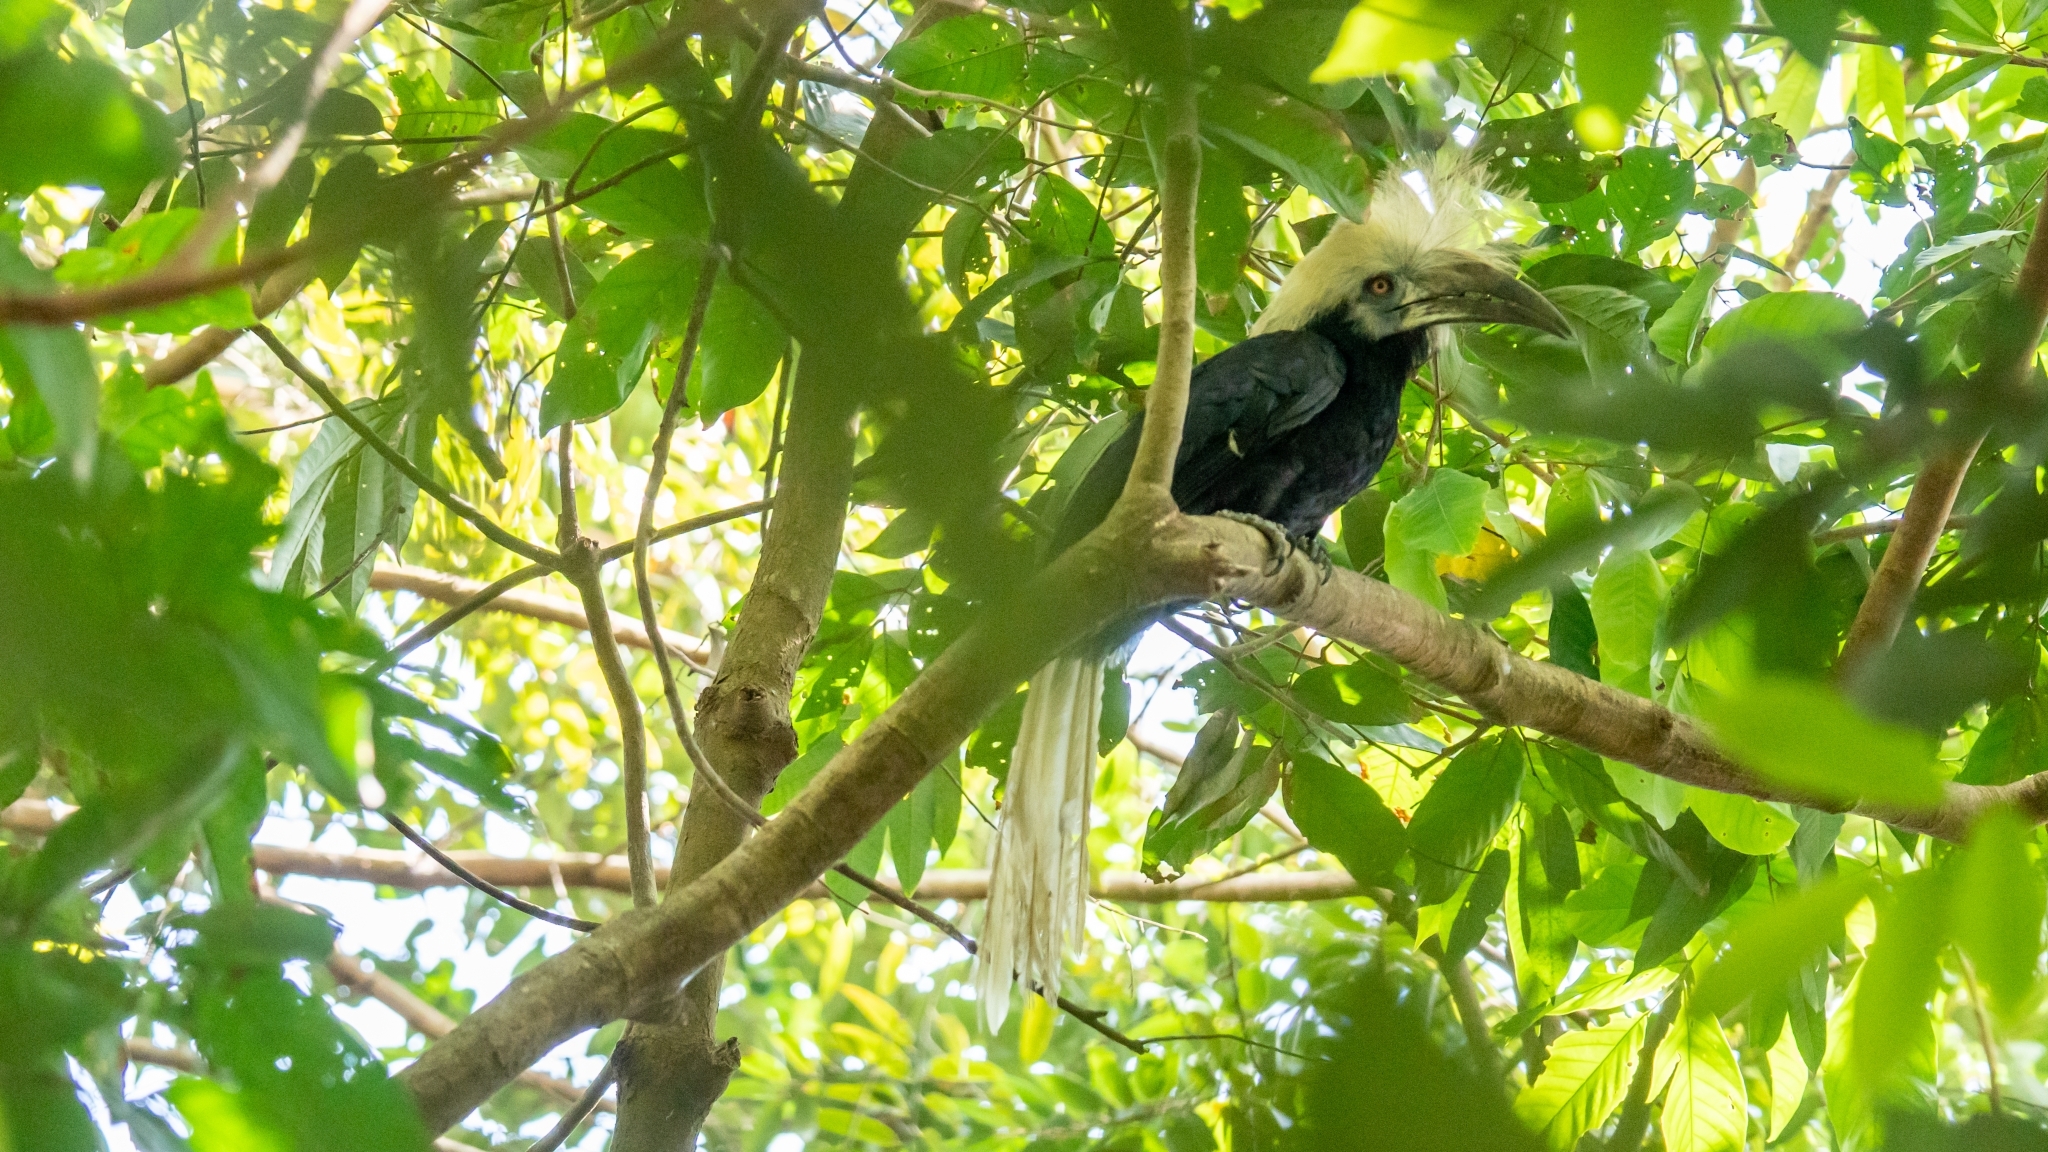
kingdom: Animalia
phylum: Chordata
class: Aves
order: Bucerotiformes
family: Bucerotidae
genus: Berenicornis
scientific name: Berenicornis comatus
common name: White-crowned hornbill
